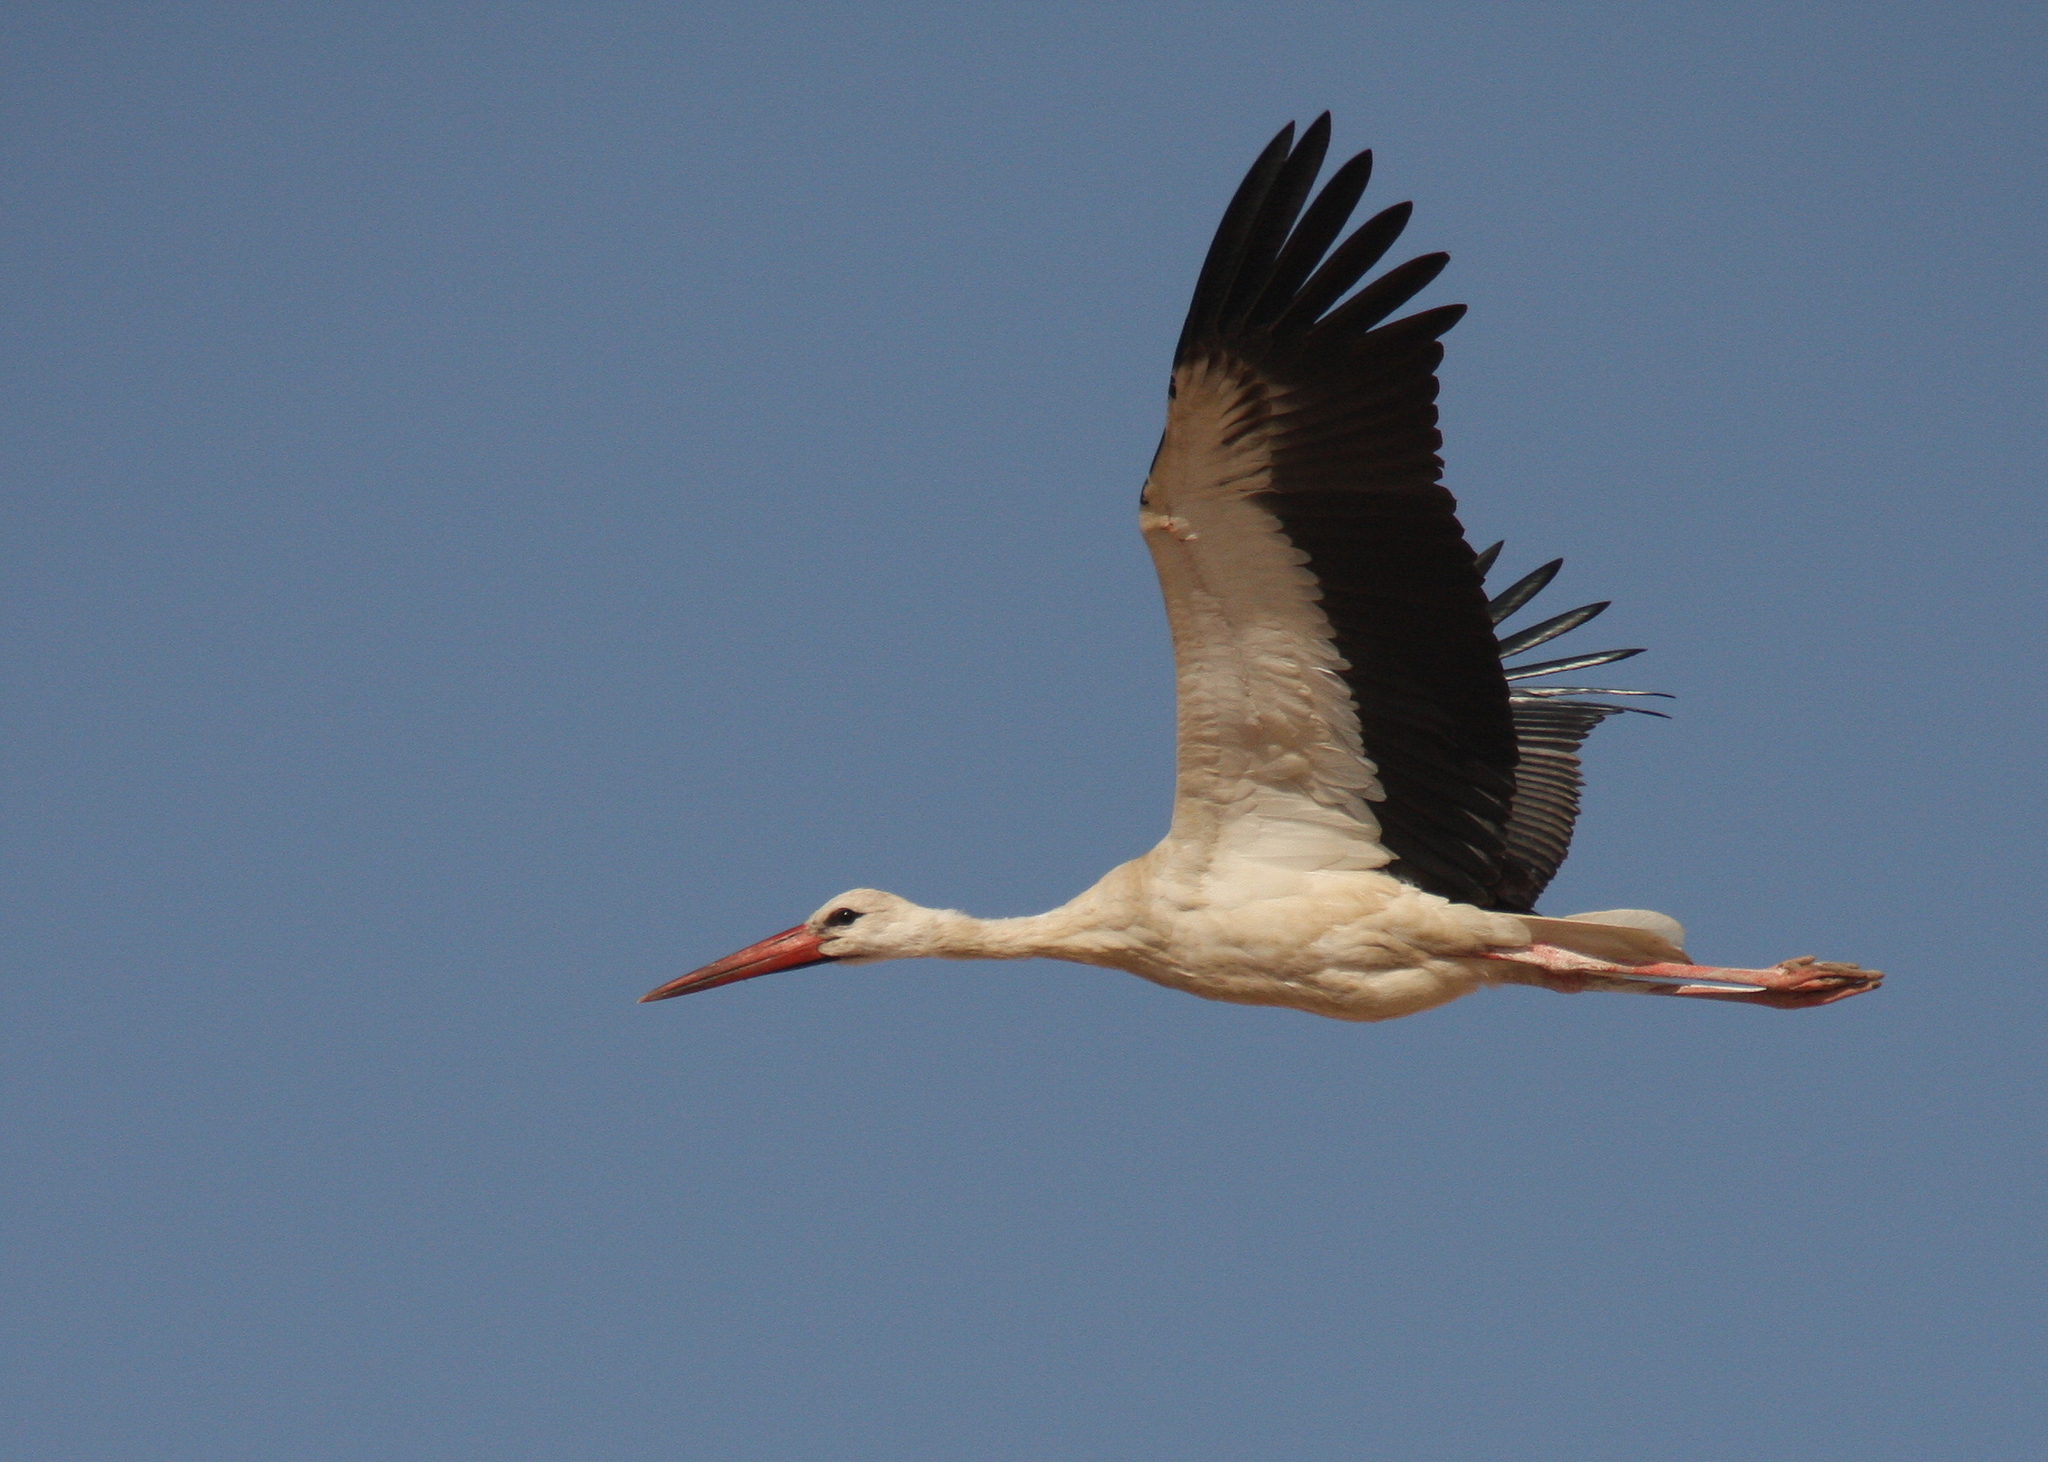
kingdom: Animalia
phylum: Chordata
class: Aves
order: Ciconiiformes
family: Ciconiidae
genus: Ciconia
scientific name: Ciconia ciconia
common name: White stork
